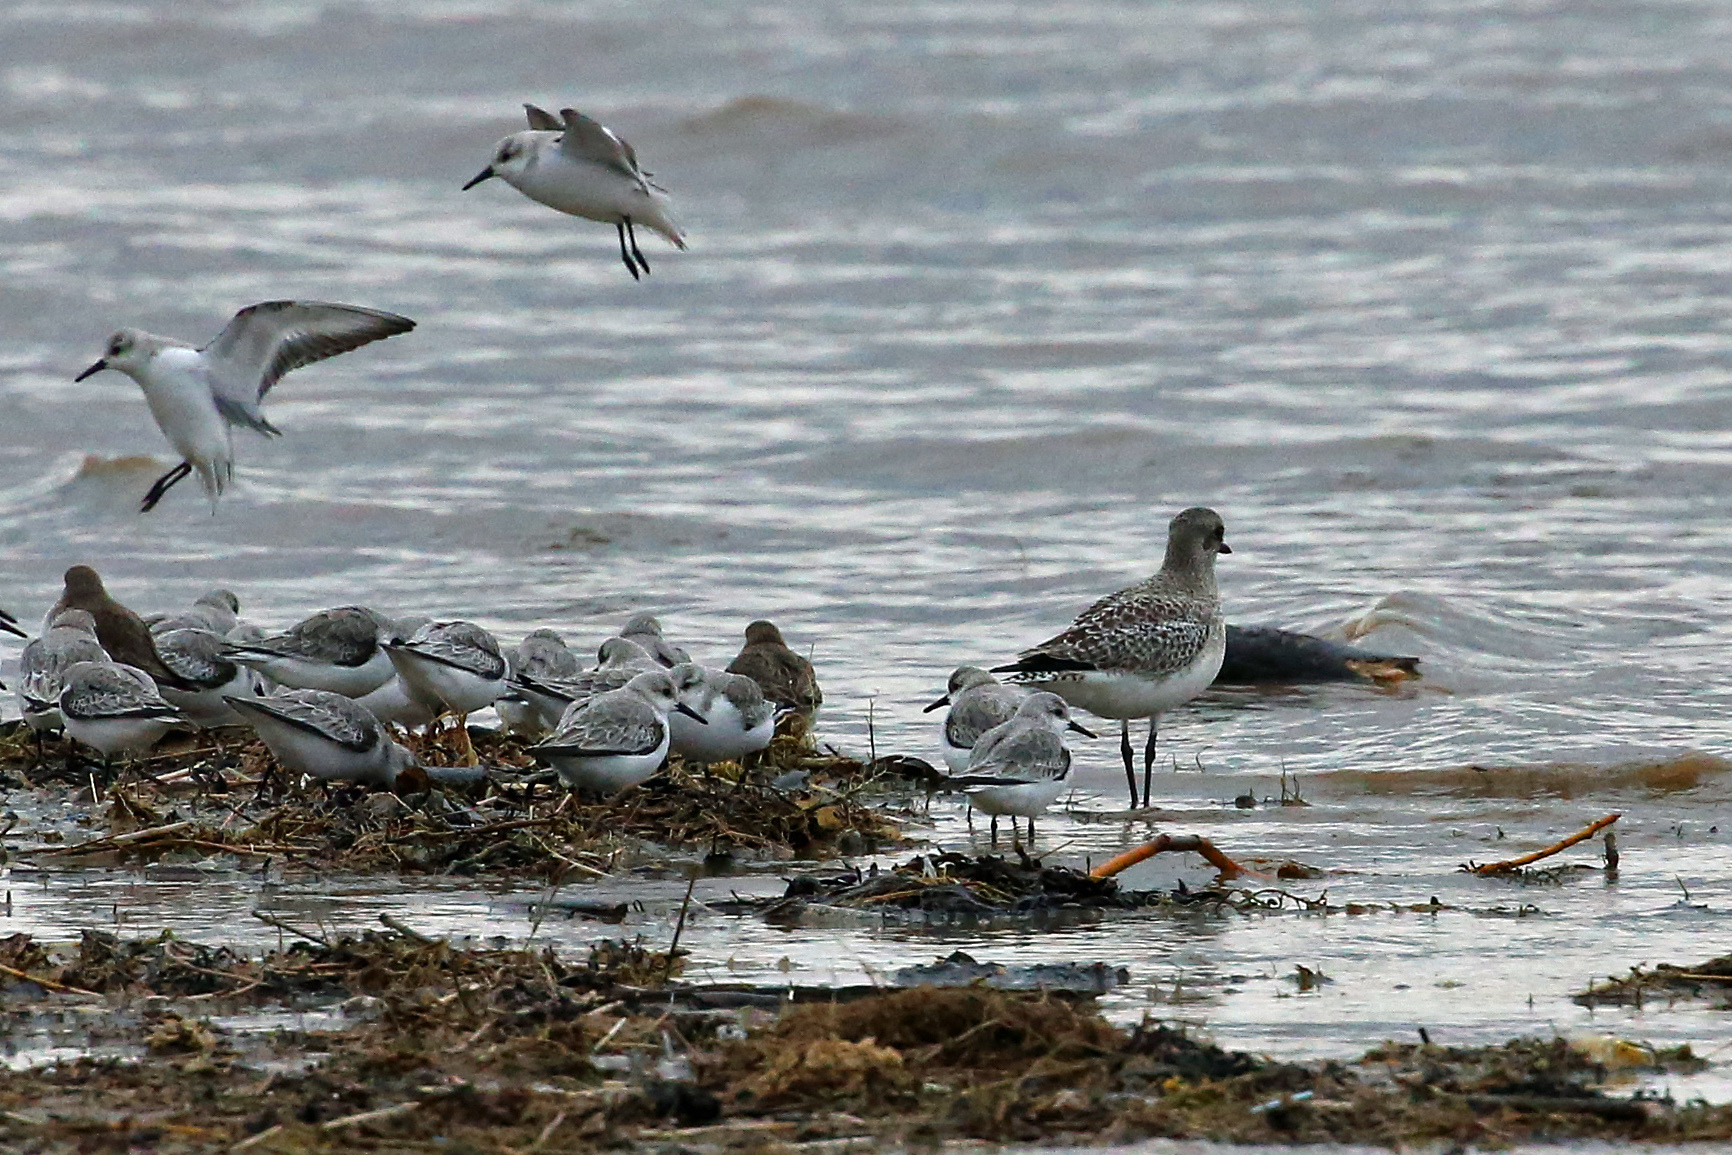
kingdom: Animalia
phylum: Chordata
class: Aves
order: Charadriiformes
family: Scolopacidae
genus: Calidris
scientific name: Calidris alba
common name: Sanderling
